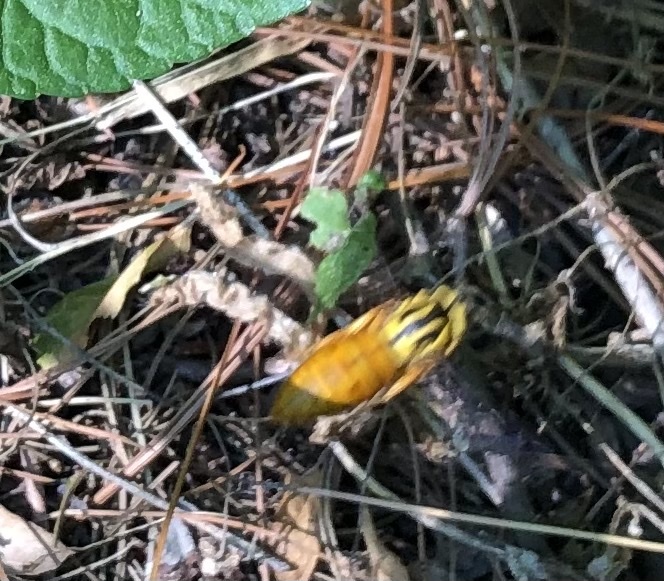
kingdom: Animalia
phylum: Arthropoda
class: Insecta
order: Hymenoptera
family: Vespidae
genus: Vespula
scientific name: Vespula squamosa
